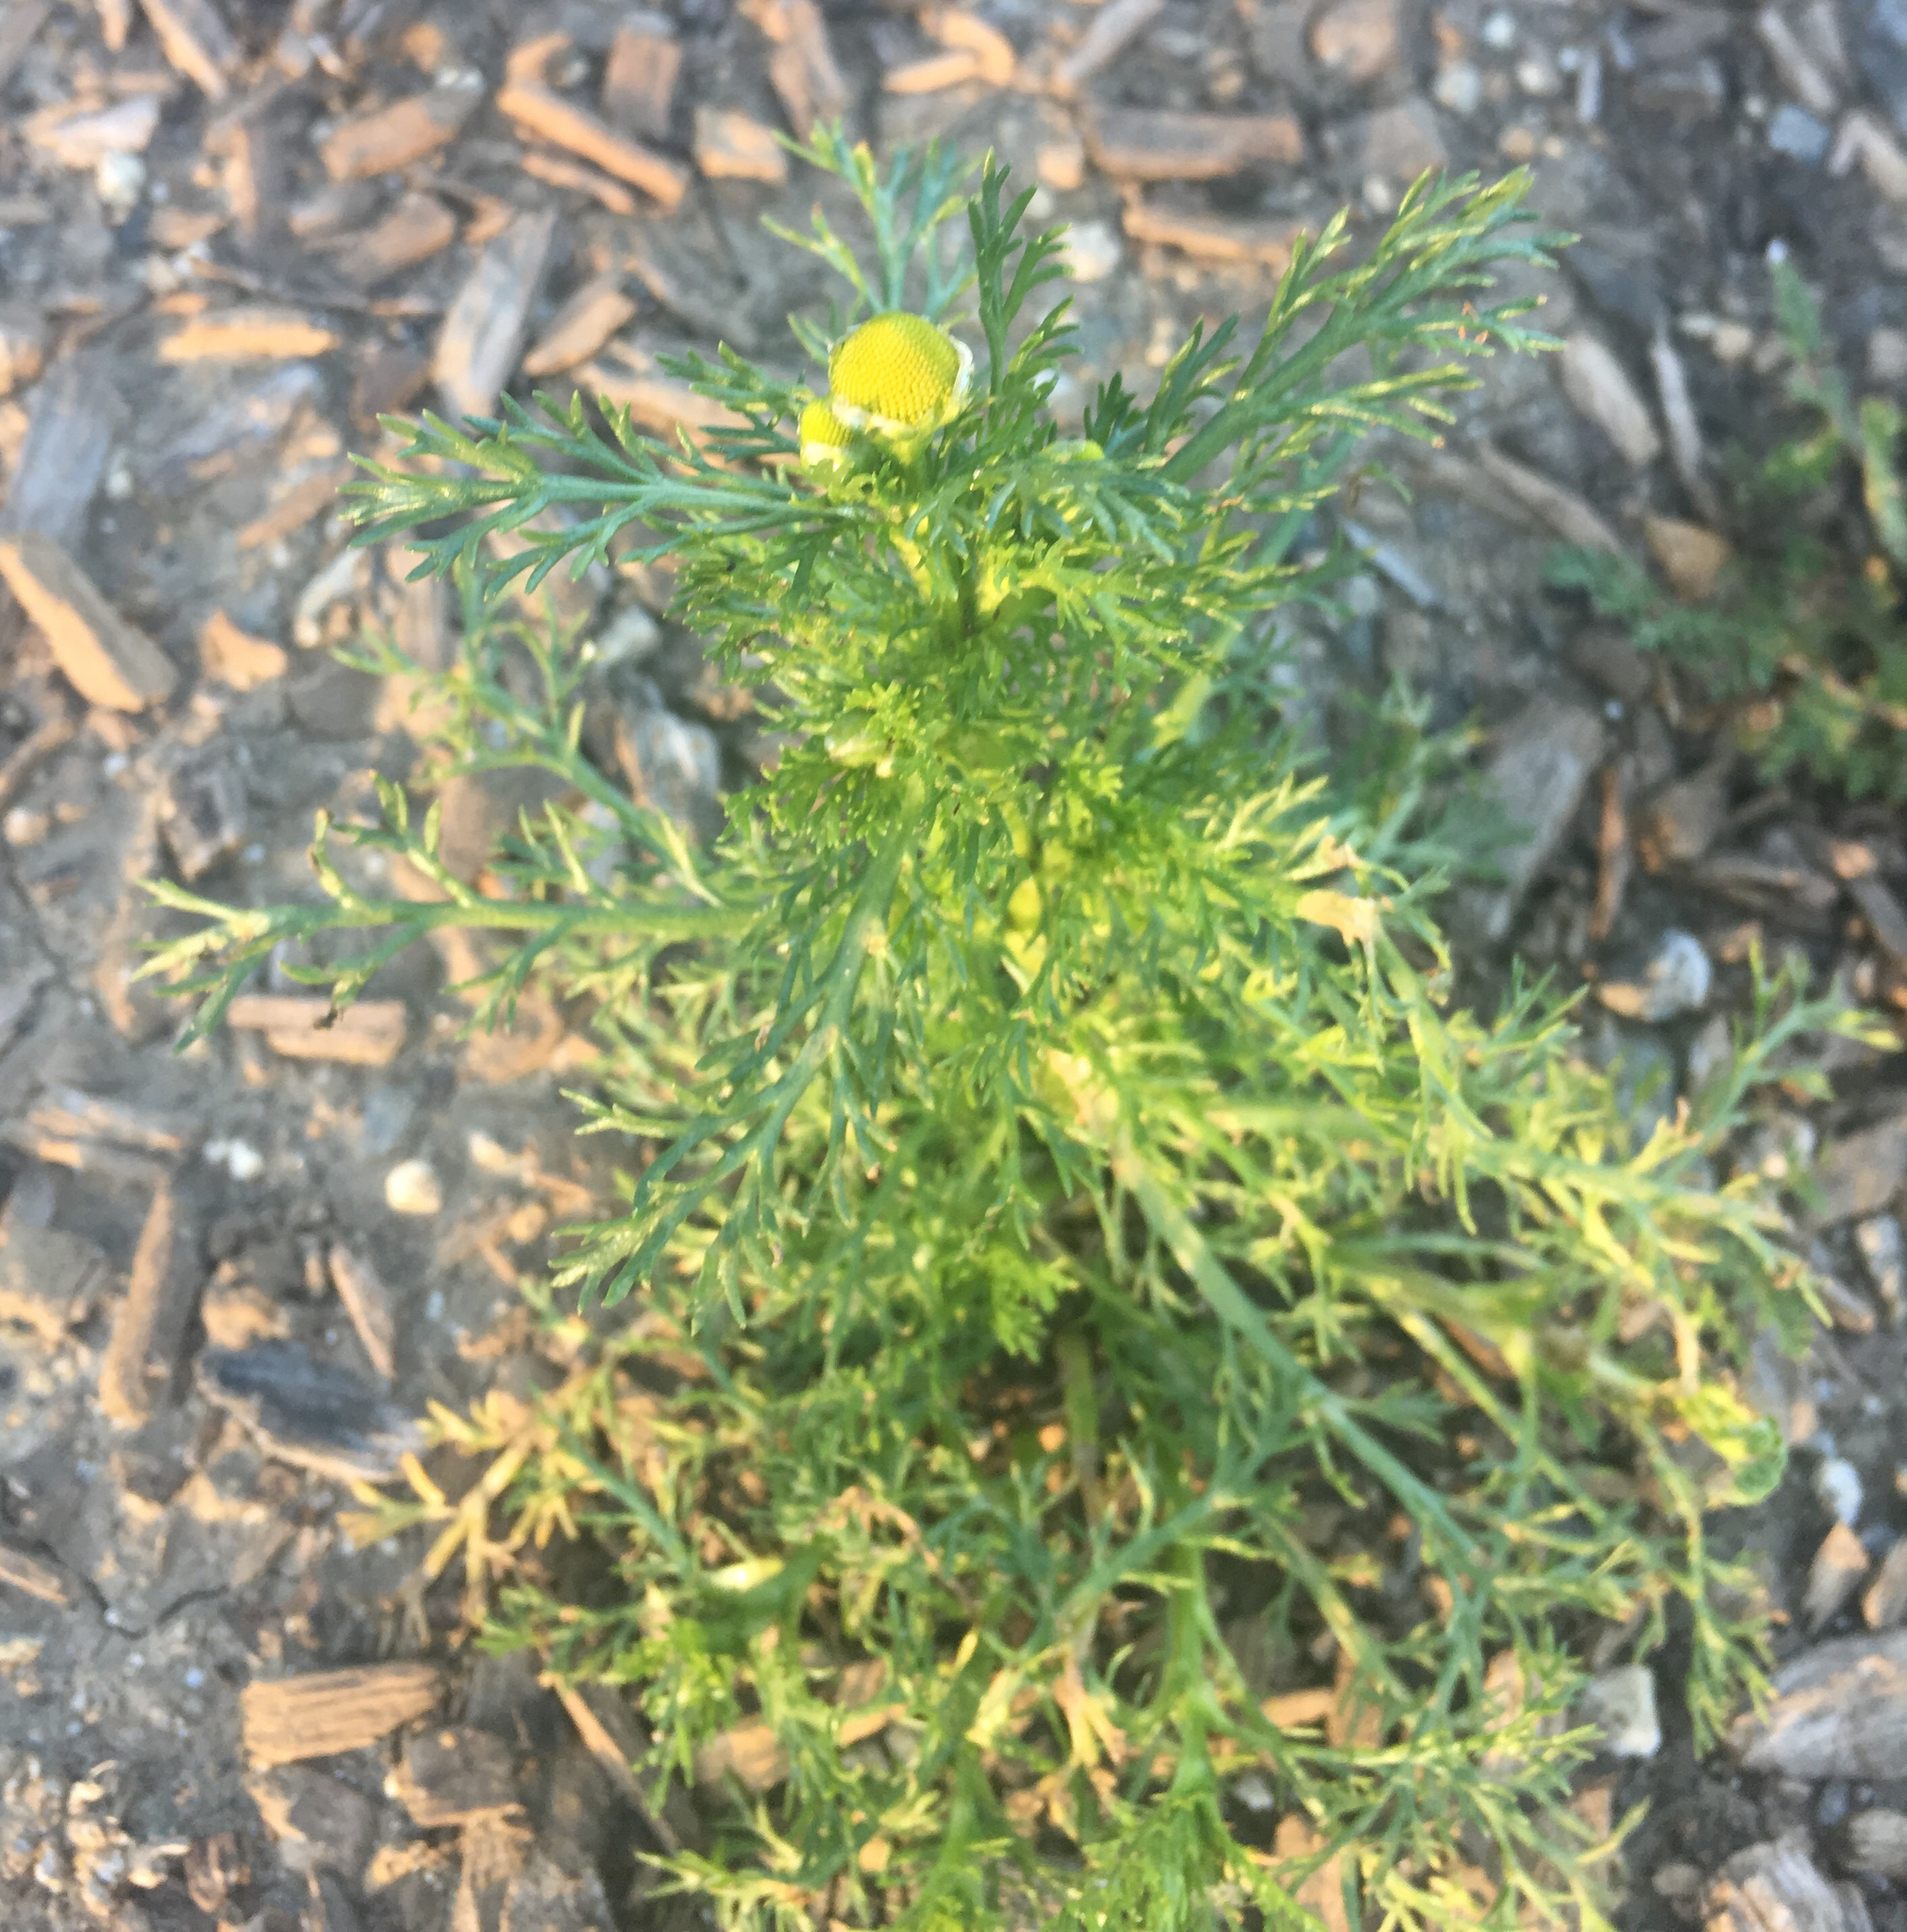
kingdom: Plantae
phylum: Tracheophyta
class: Magnoliopsida
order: Asterales
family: Asteraceae
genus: Matricaria
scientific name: Matricaria discoidea
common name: Disc mayweed
